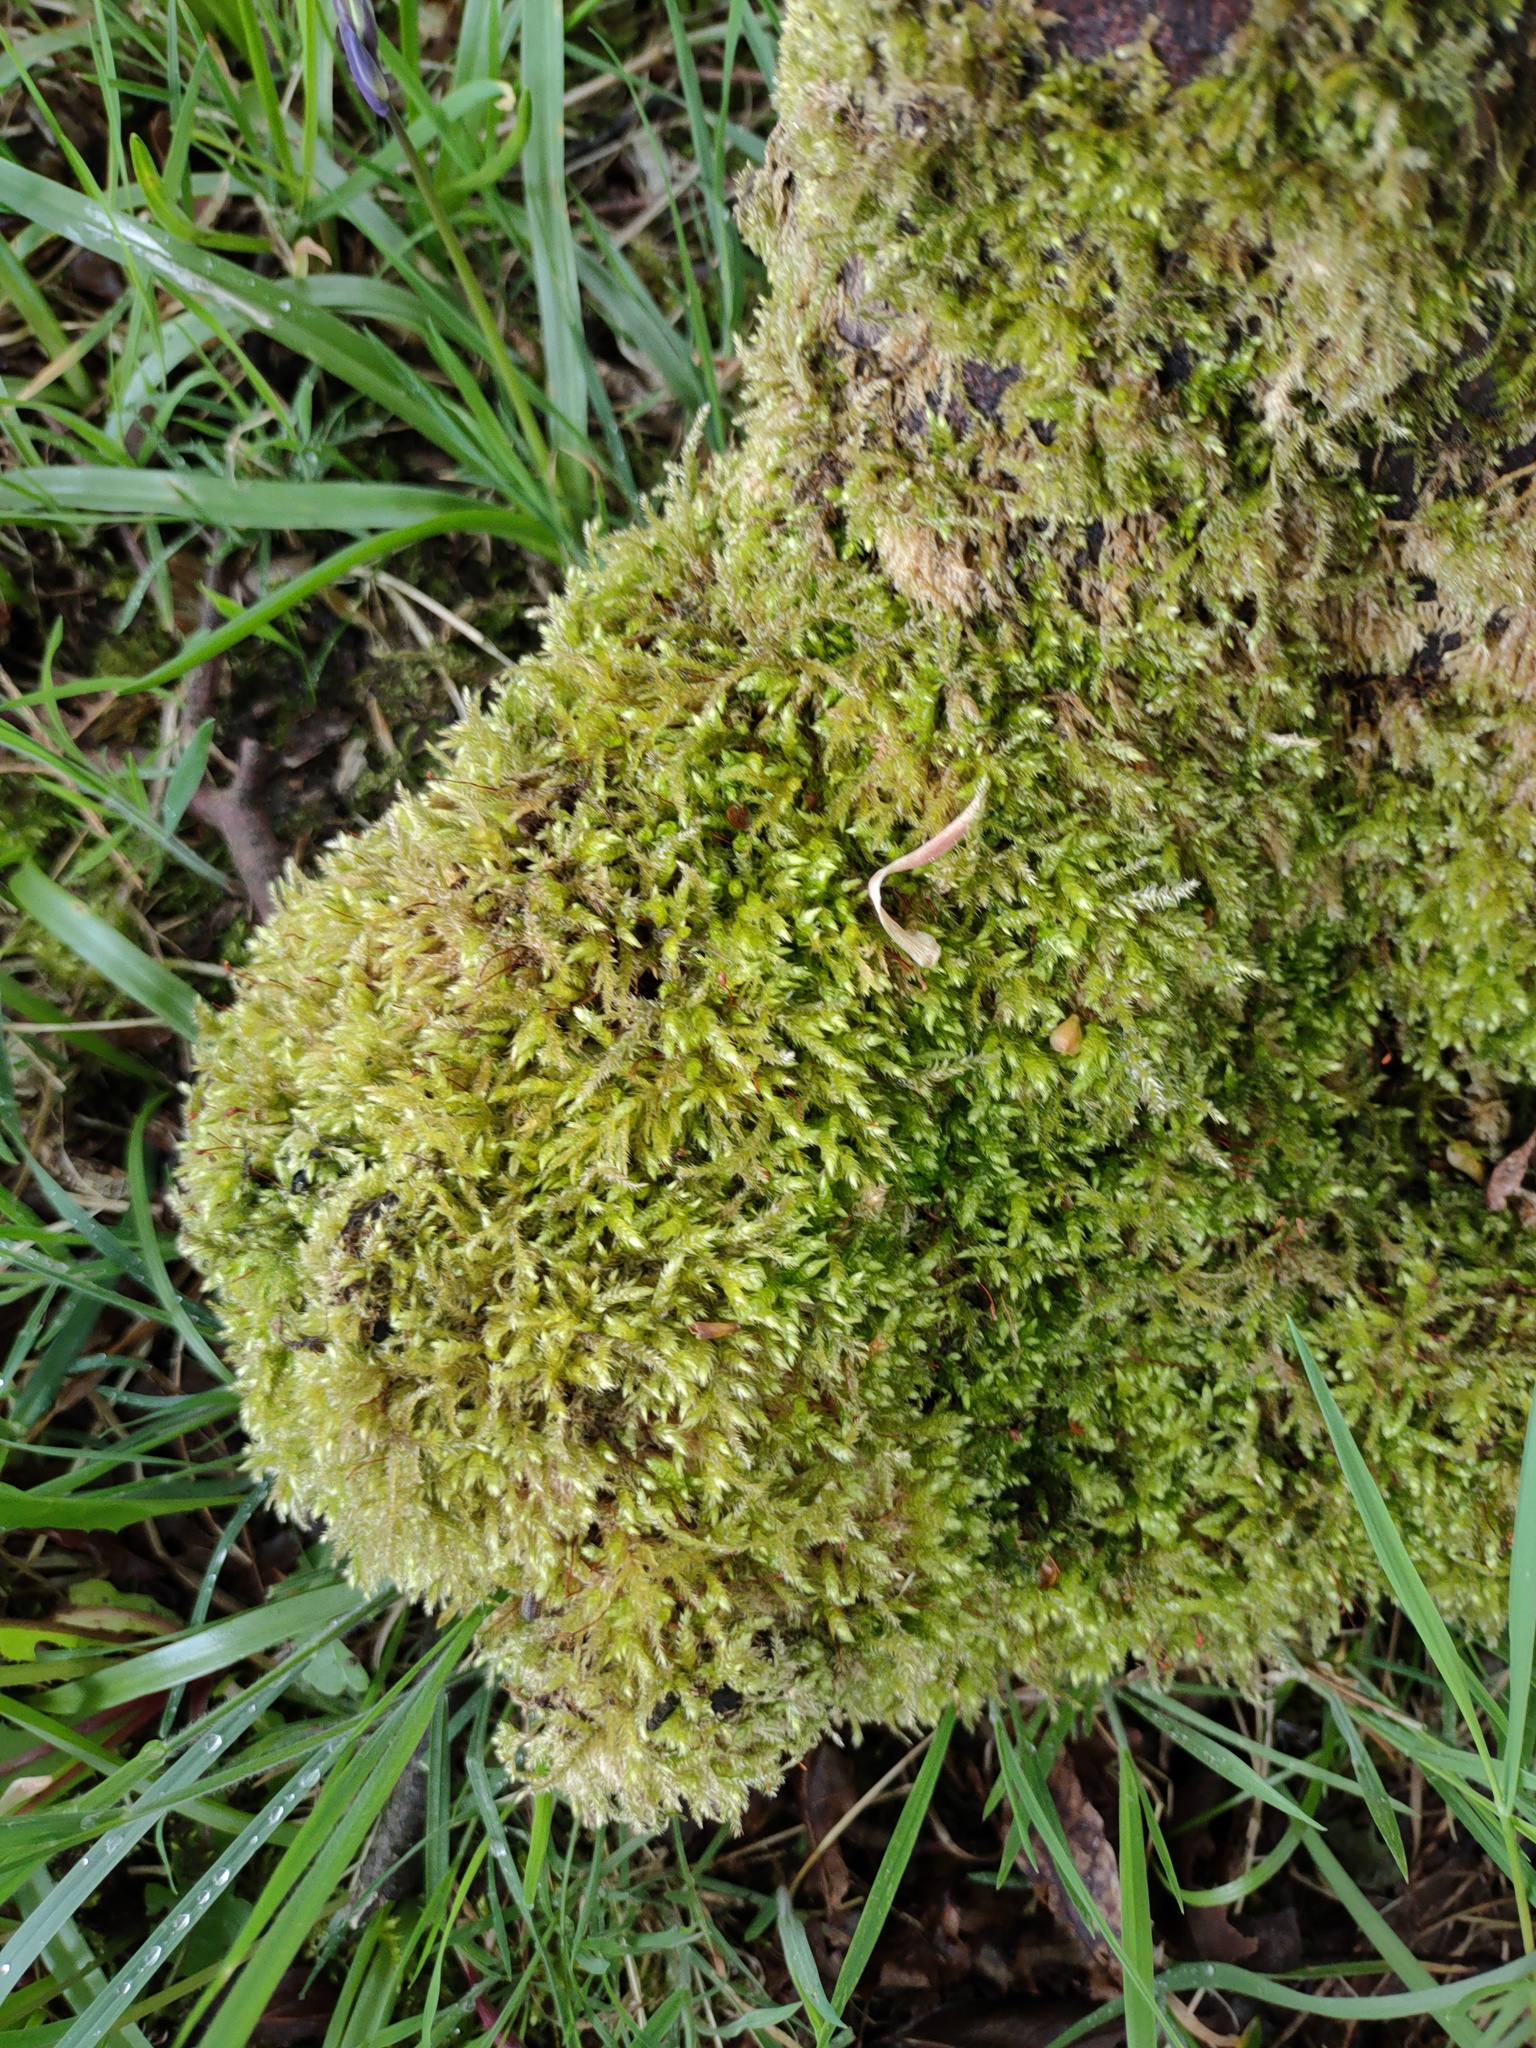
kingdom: Plantae
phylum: Bryophyta
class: Bryopsida
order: Hypnales
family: Brachytheciaceae
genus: Brachythecium
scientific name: Brachythecium rutabulum
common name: Rough-stalked feather-moss
